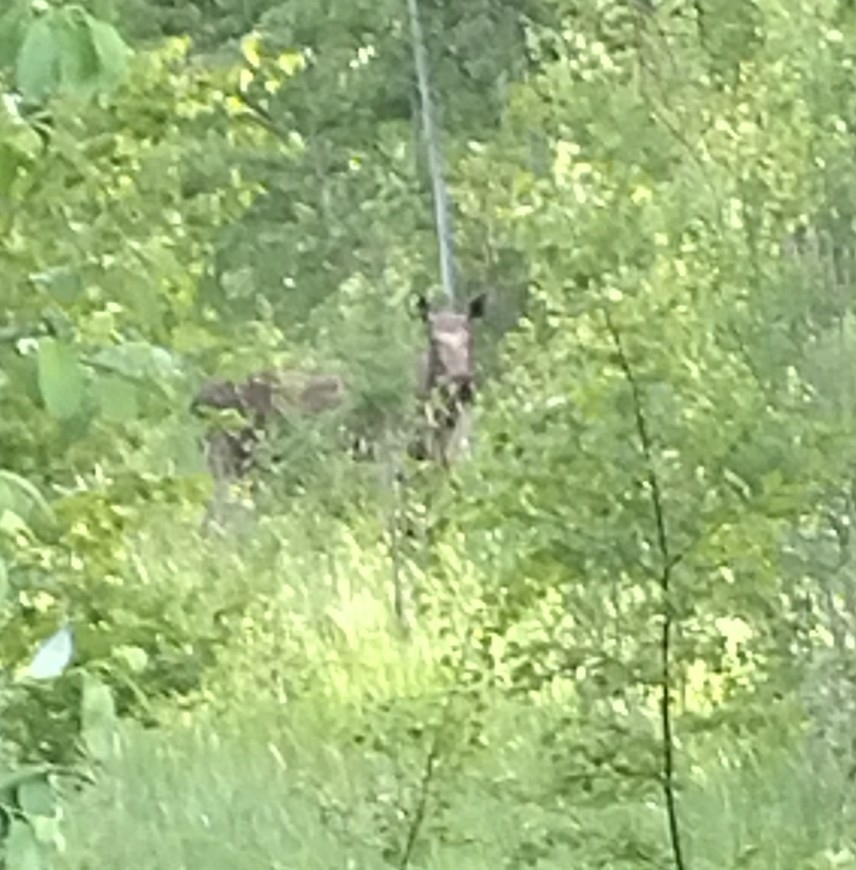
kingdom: Animalia
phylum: Chordata
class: Mammalia
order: Artiodactyla
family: Cervidae
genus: Alces
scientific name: Alces alces
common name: Moose
